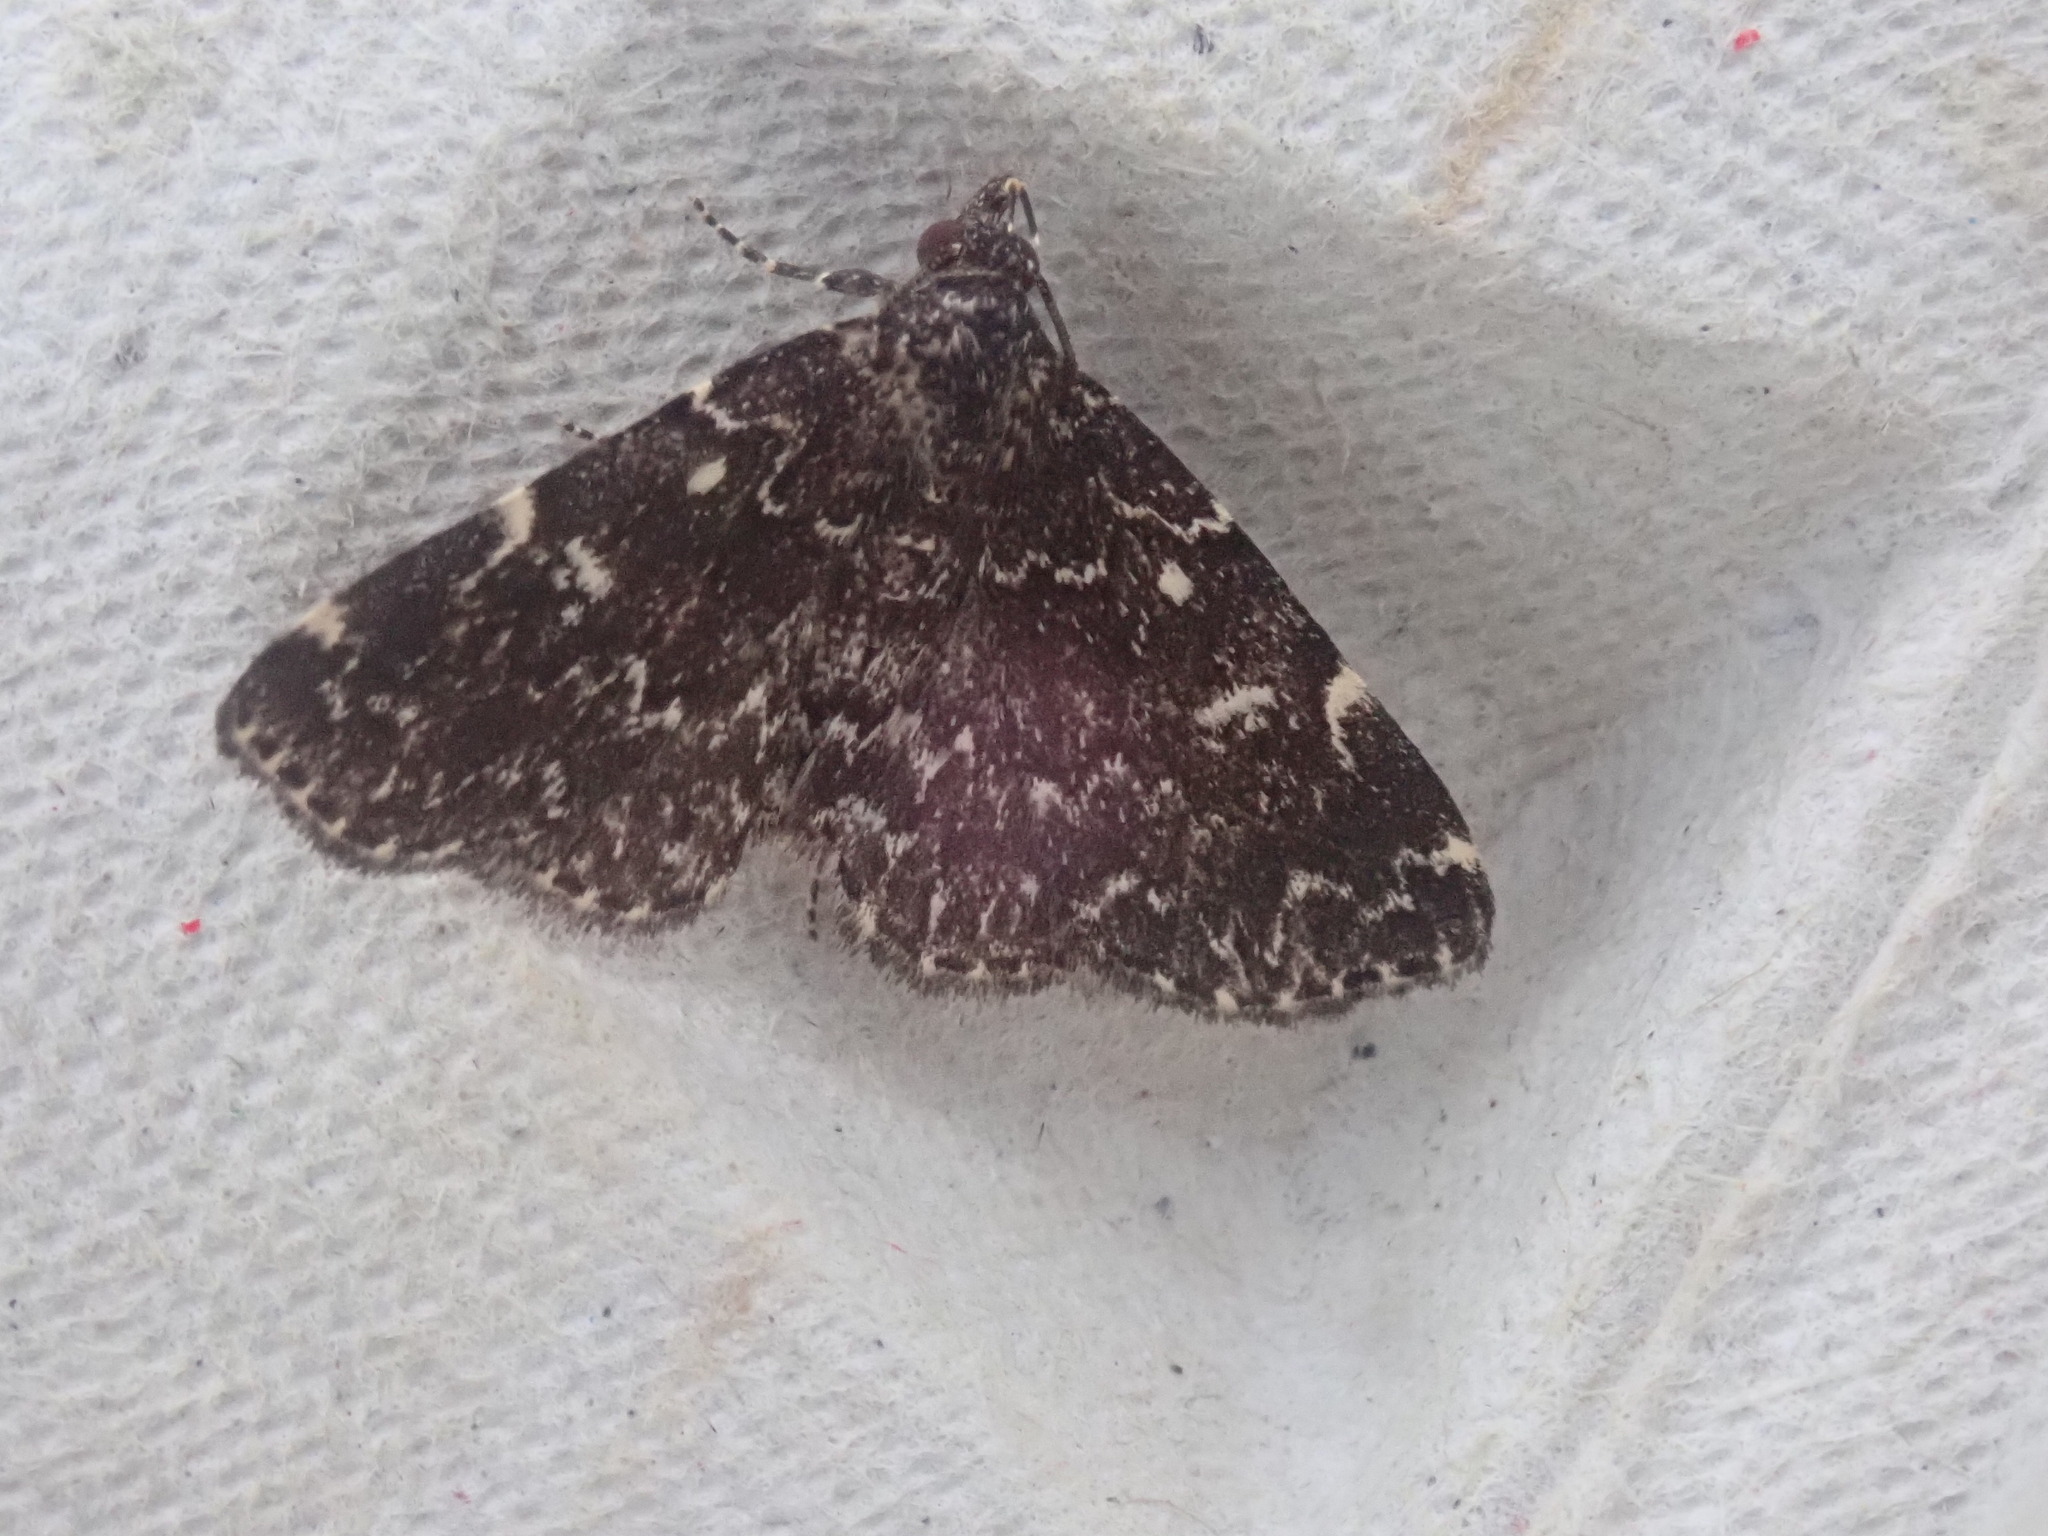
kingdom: Animalia
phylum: Arthropoda
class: Insecta
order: Lepidoptera
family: Erebidae
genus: Idia
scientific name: Idia scobialis
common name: Smoky idia moth
